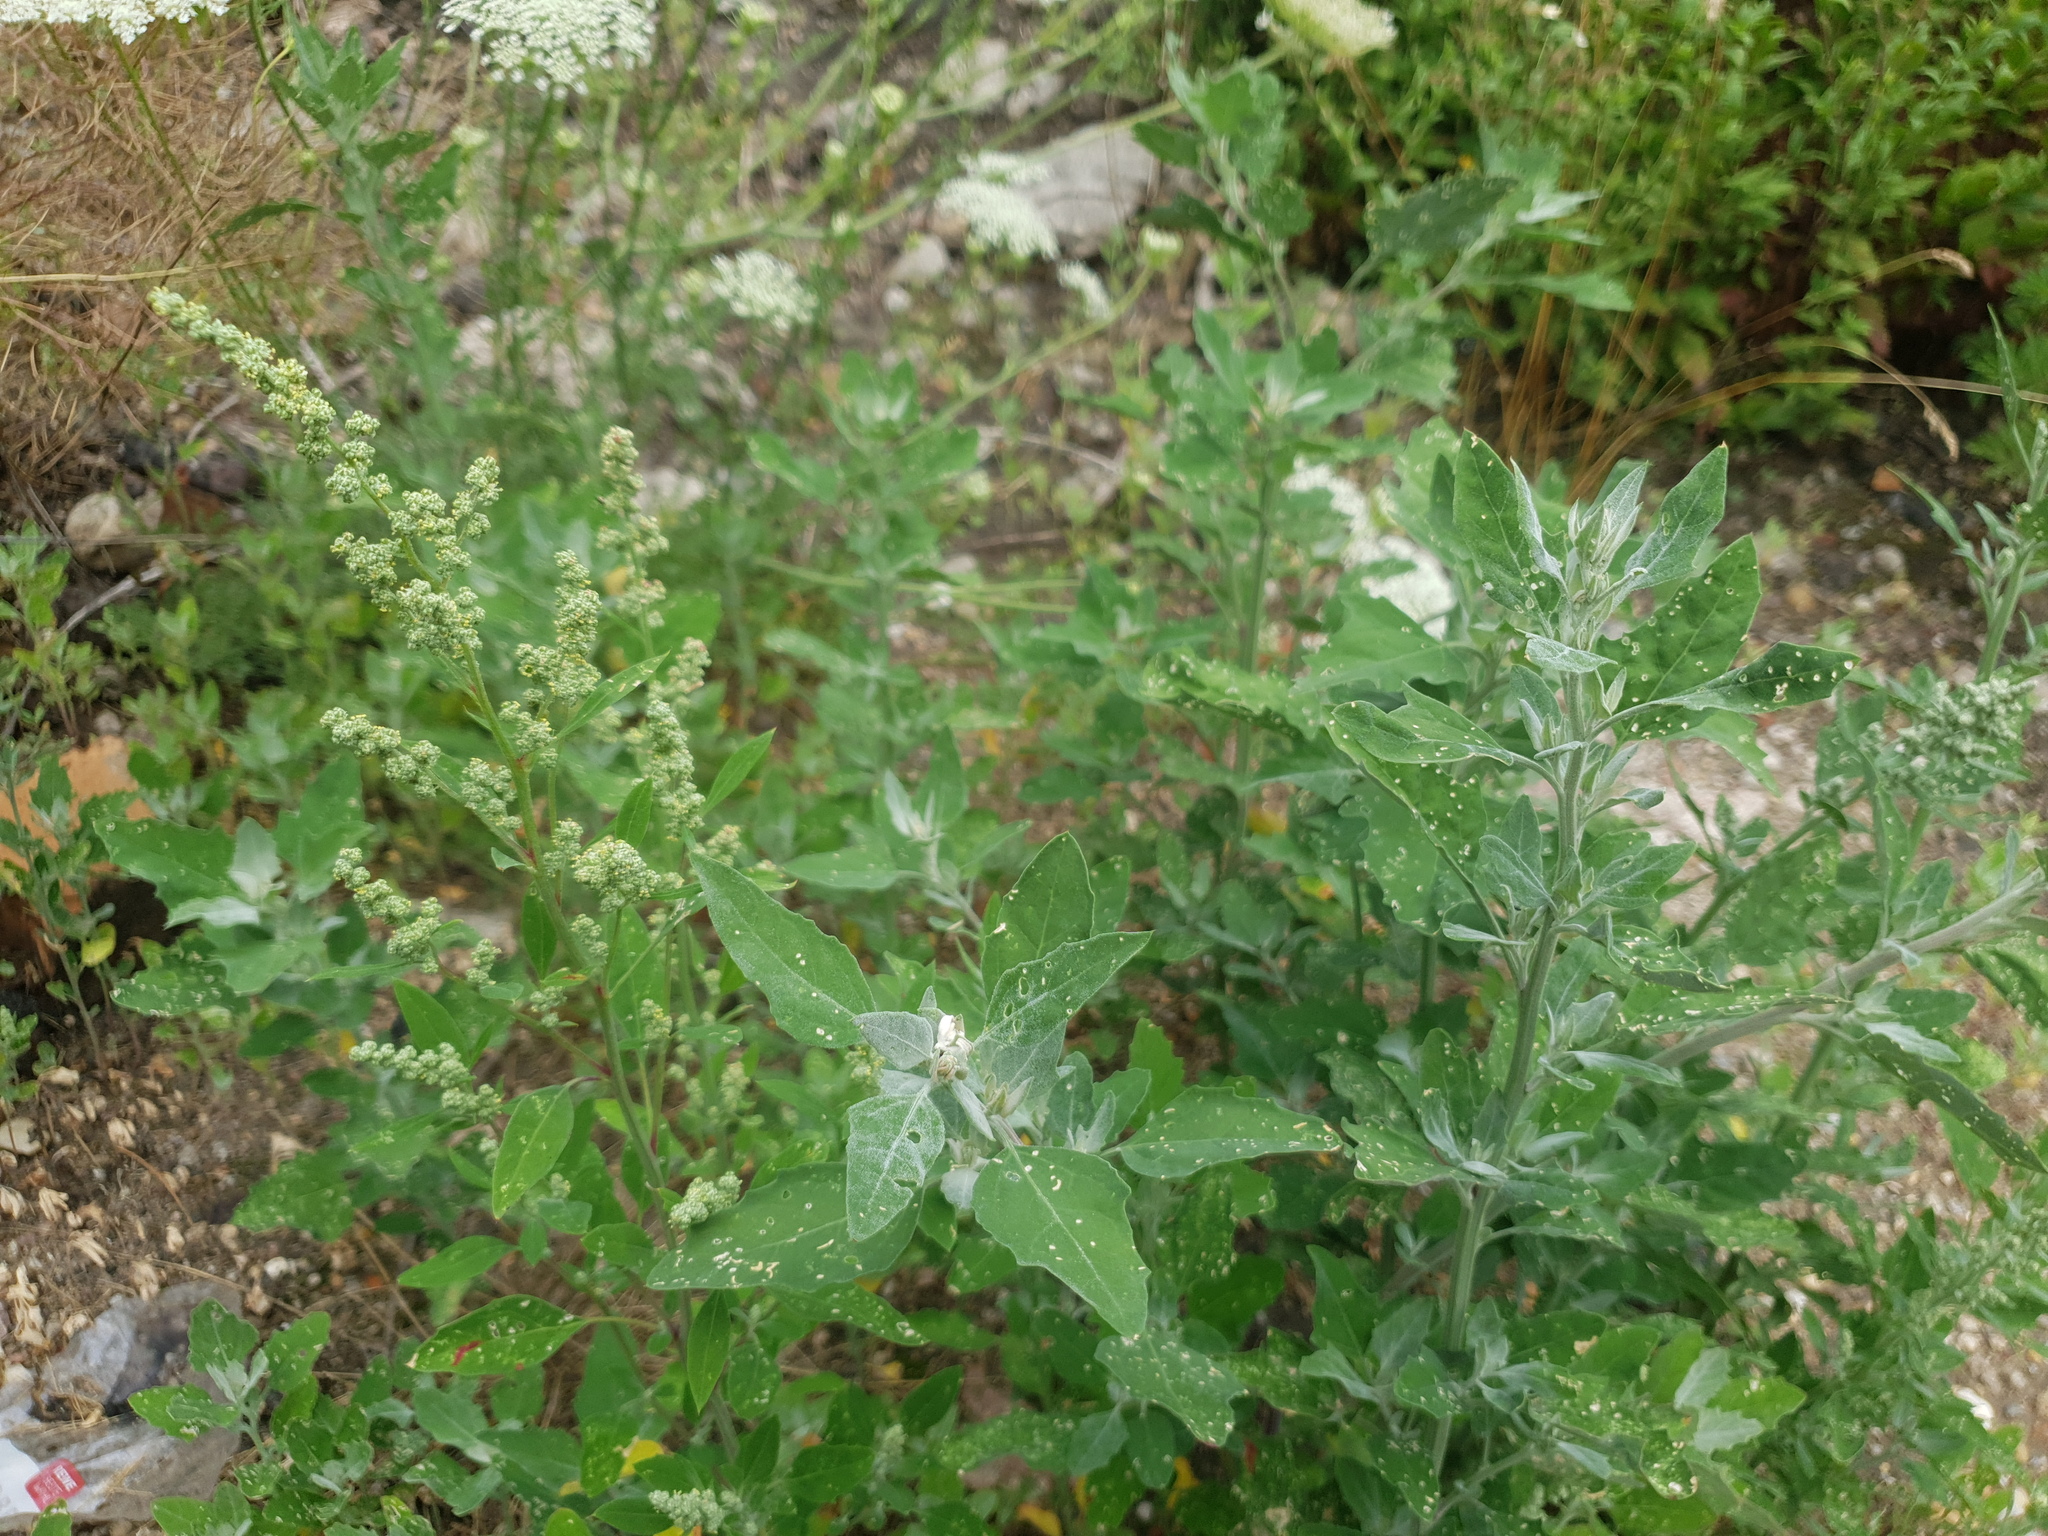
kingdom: Plantae
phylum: Tracheophyta
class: Magnoliopsida
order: Caryophyllales
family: Amaranthaceae
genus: Chenopodium
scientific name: Chenopodium album
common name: Fat-hen
